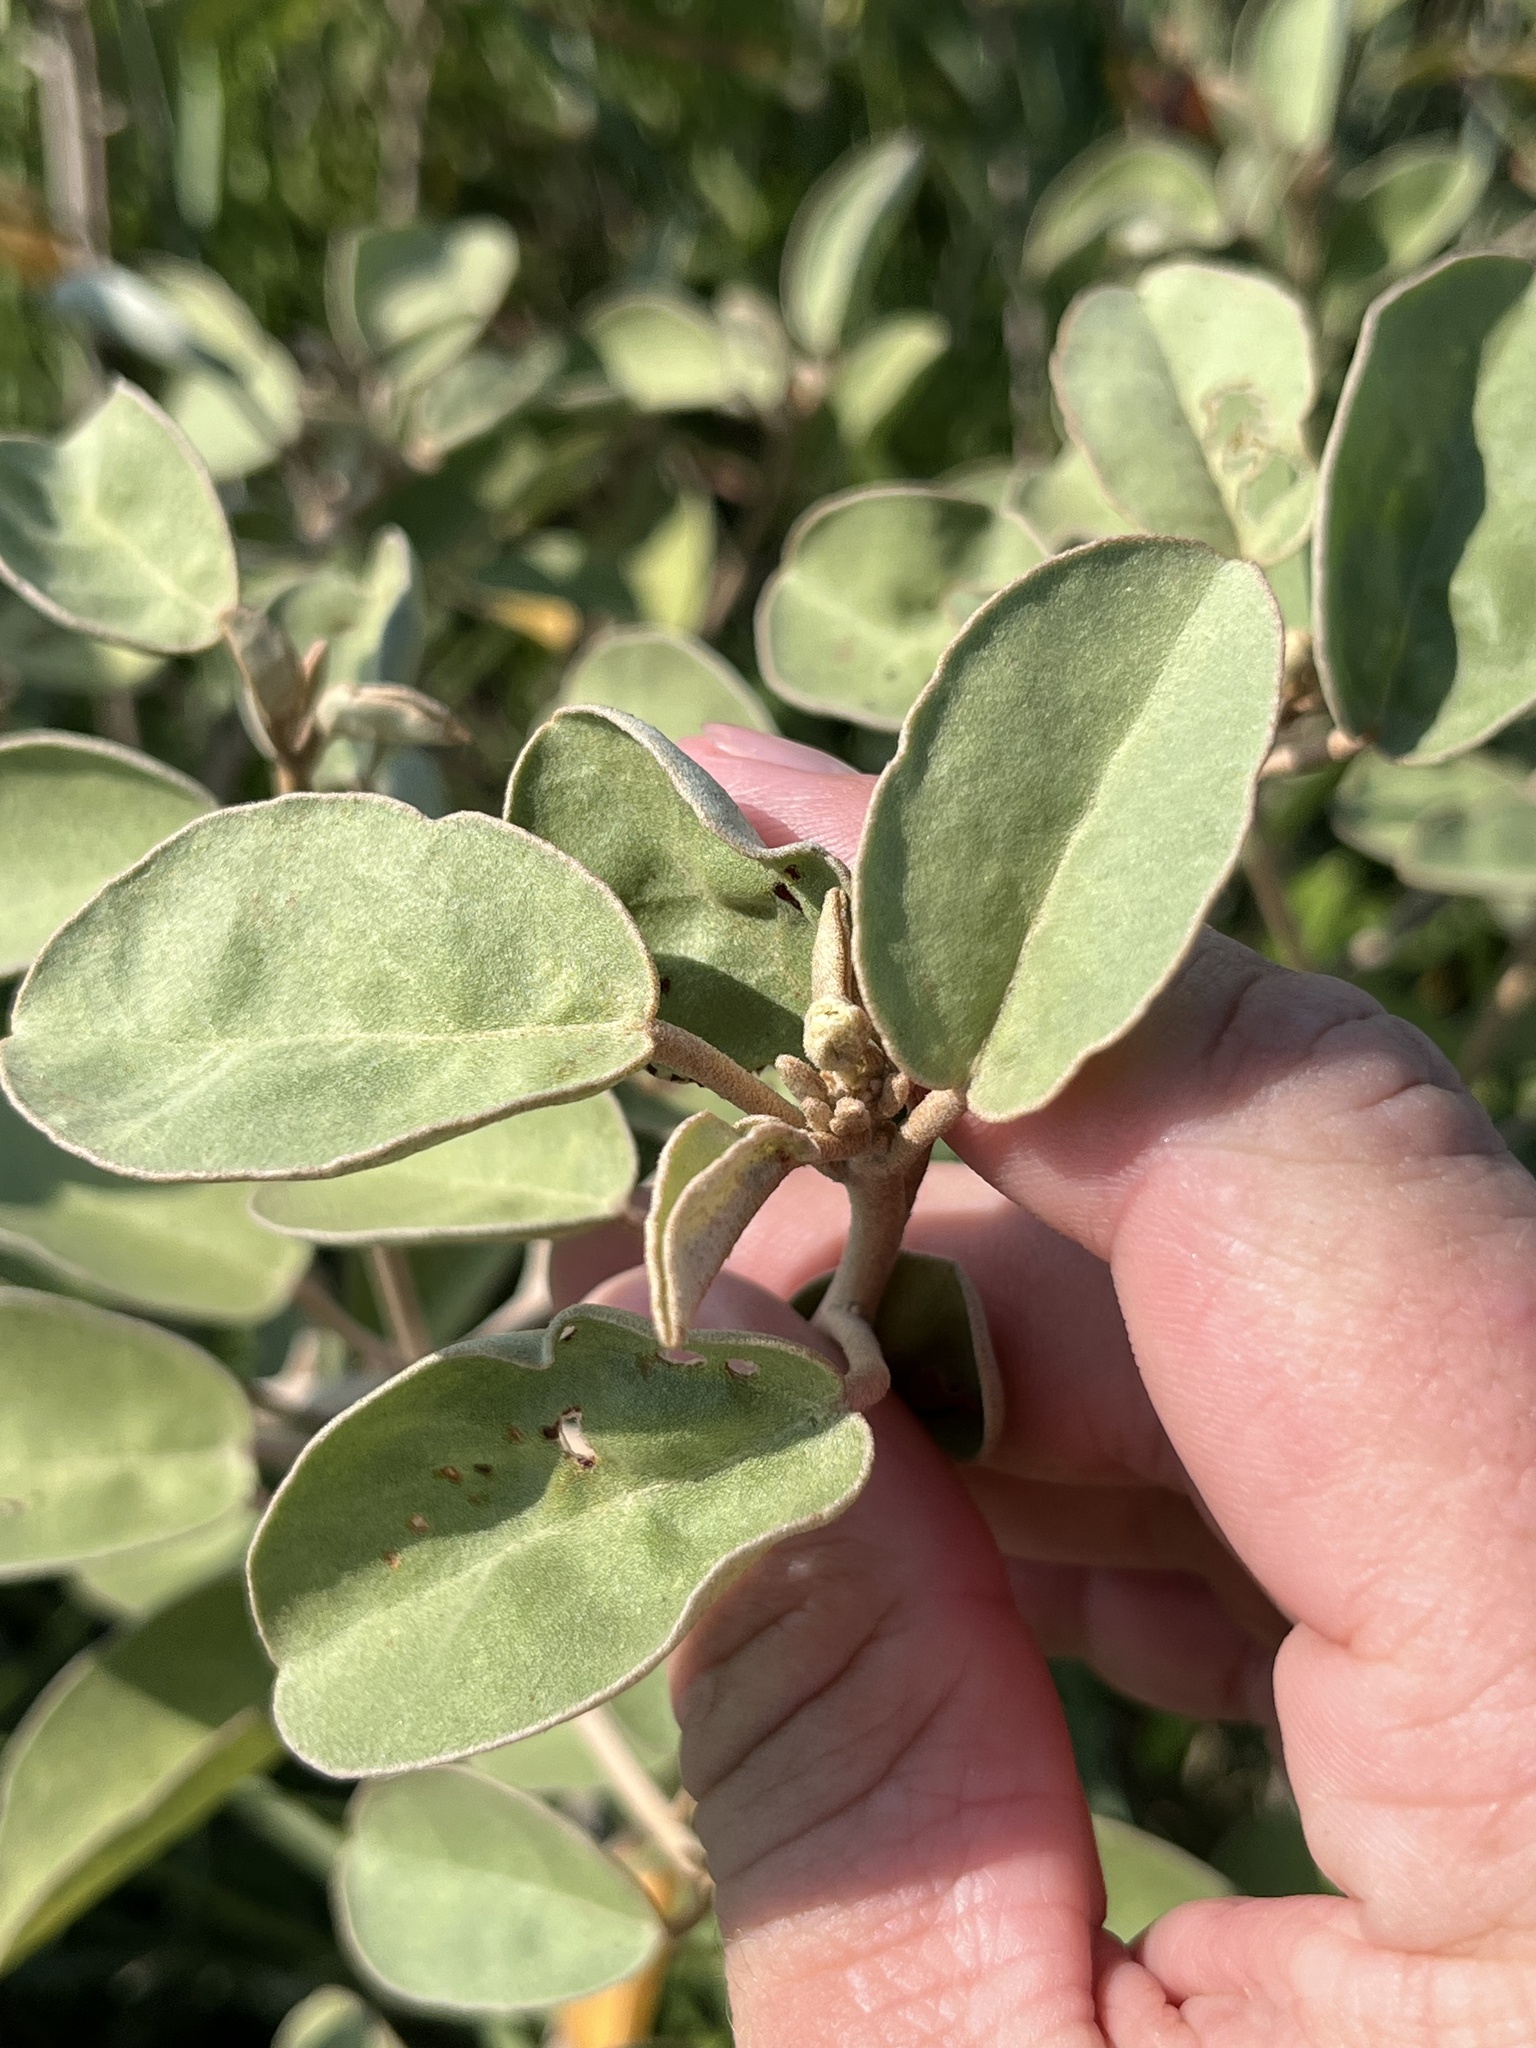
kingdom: Plantae
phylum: Tracheophyta
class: Magnoliopsida
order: Malpighiales
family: Euphorbiaceae
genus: Croton
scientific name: Croton punctatus
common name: Beach-tea
